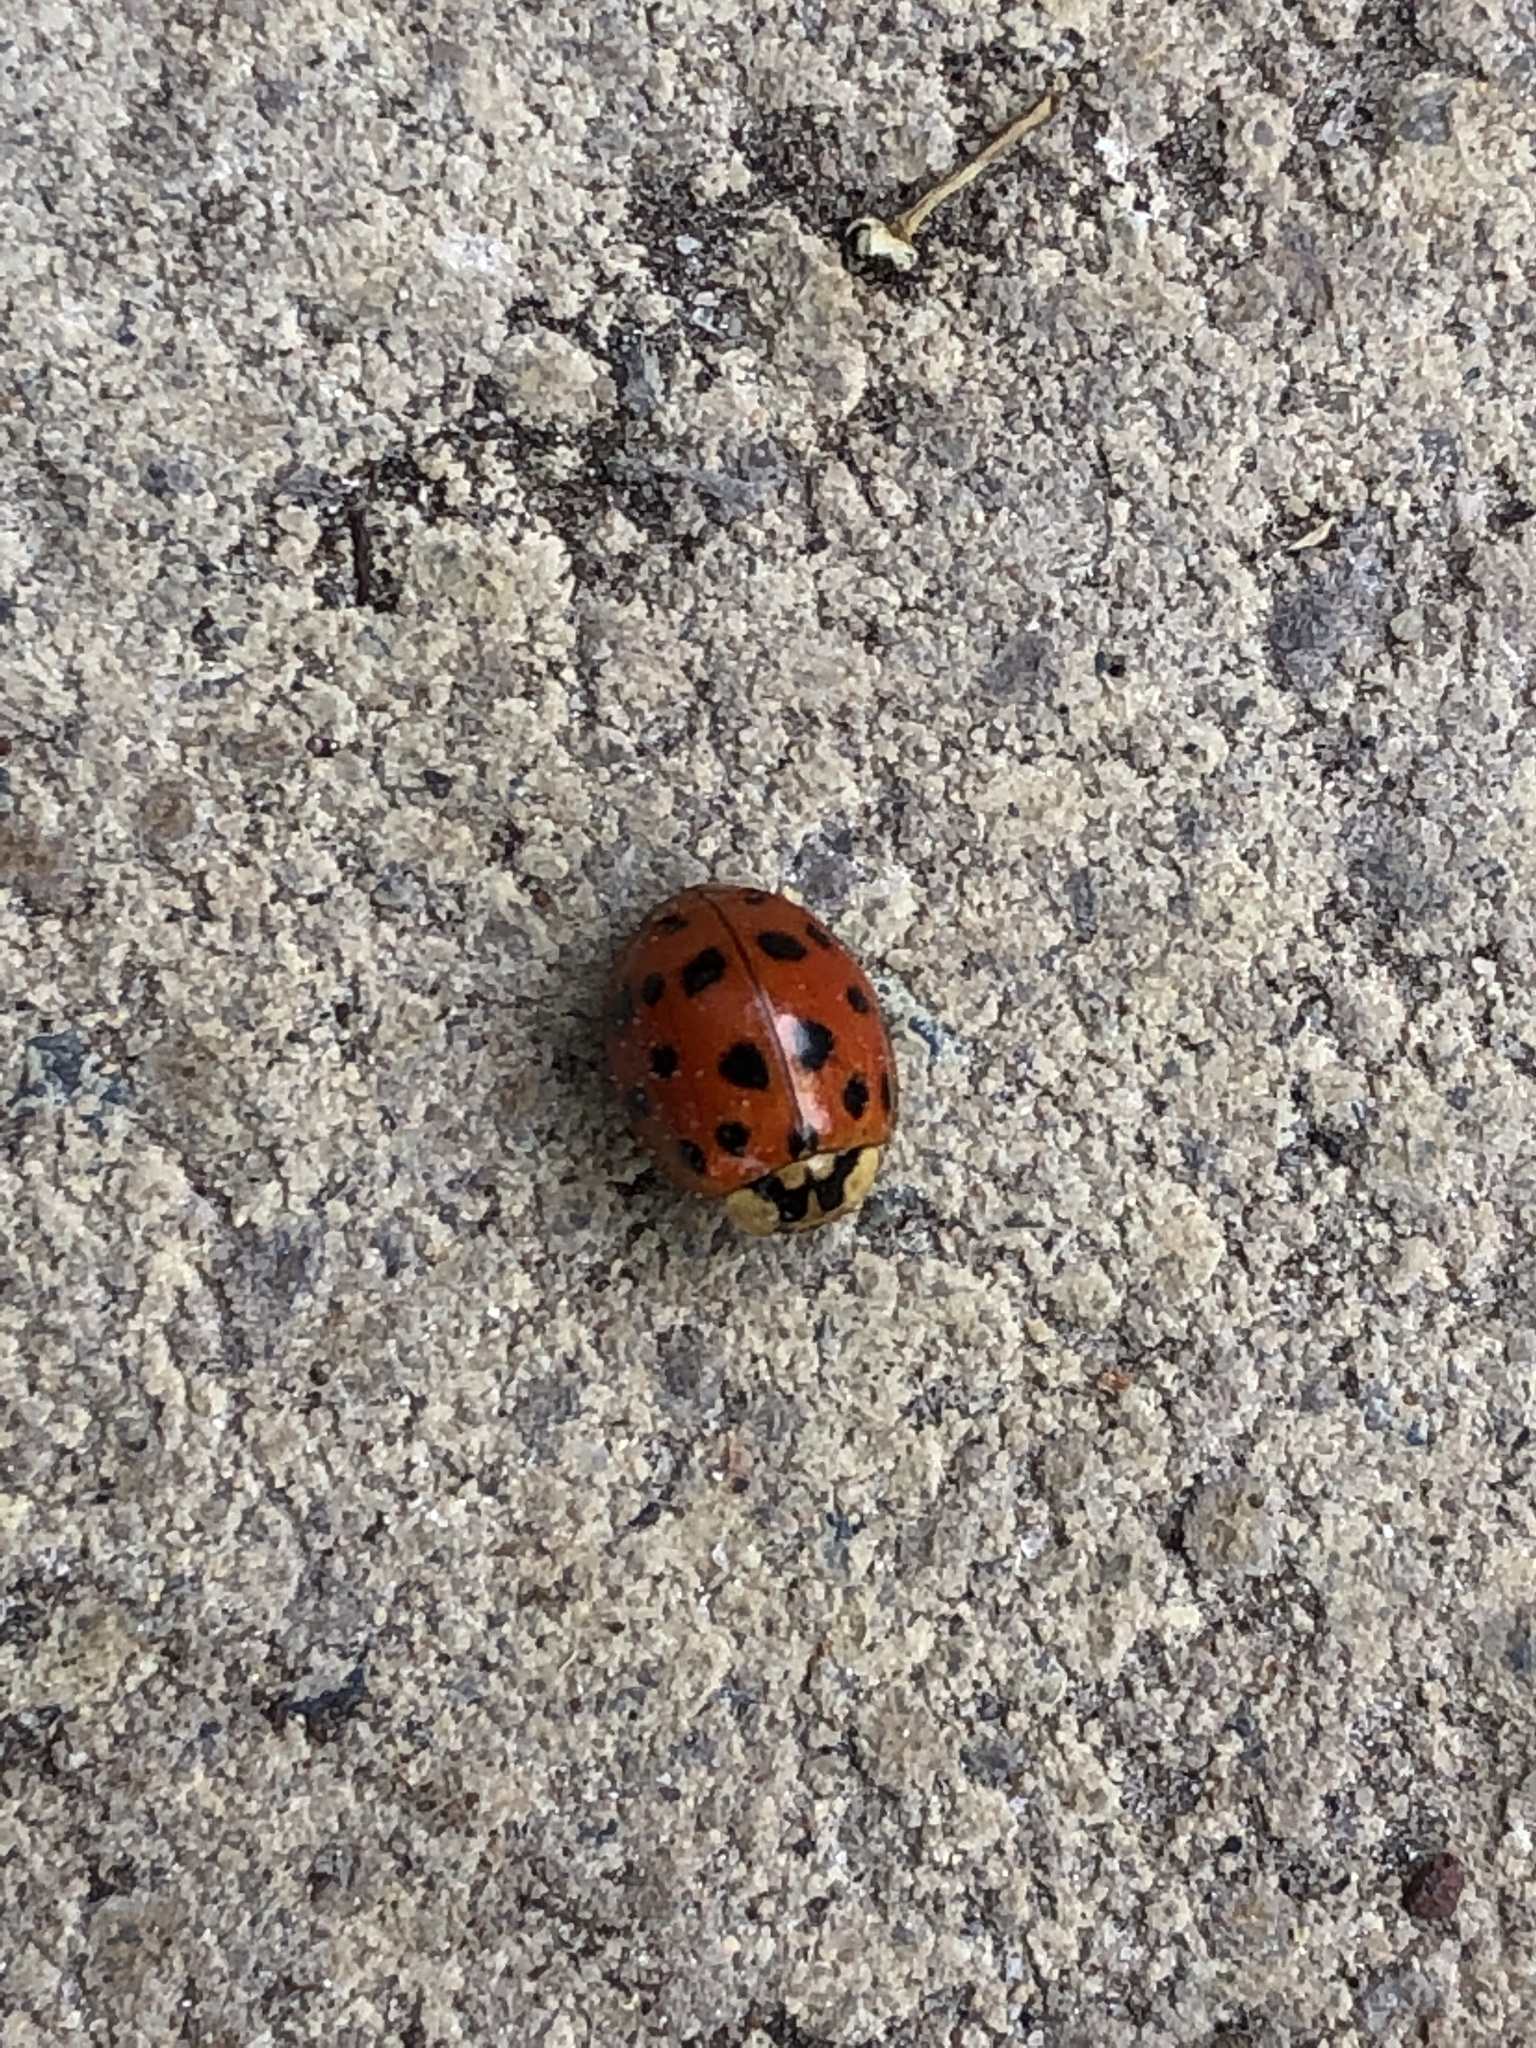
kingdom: Animalia
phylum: Arthropoda
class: Insecta
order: Coleoptera
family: Coccinellidae
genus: Harmonia
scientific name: Harmonia axyridis
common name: Harlequin ladybird
